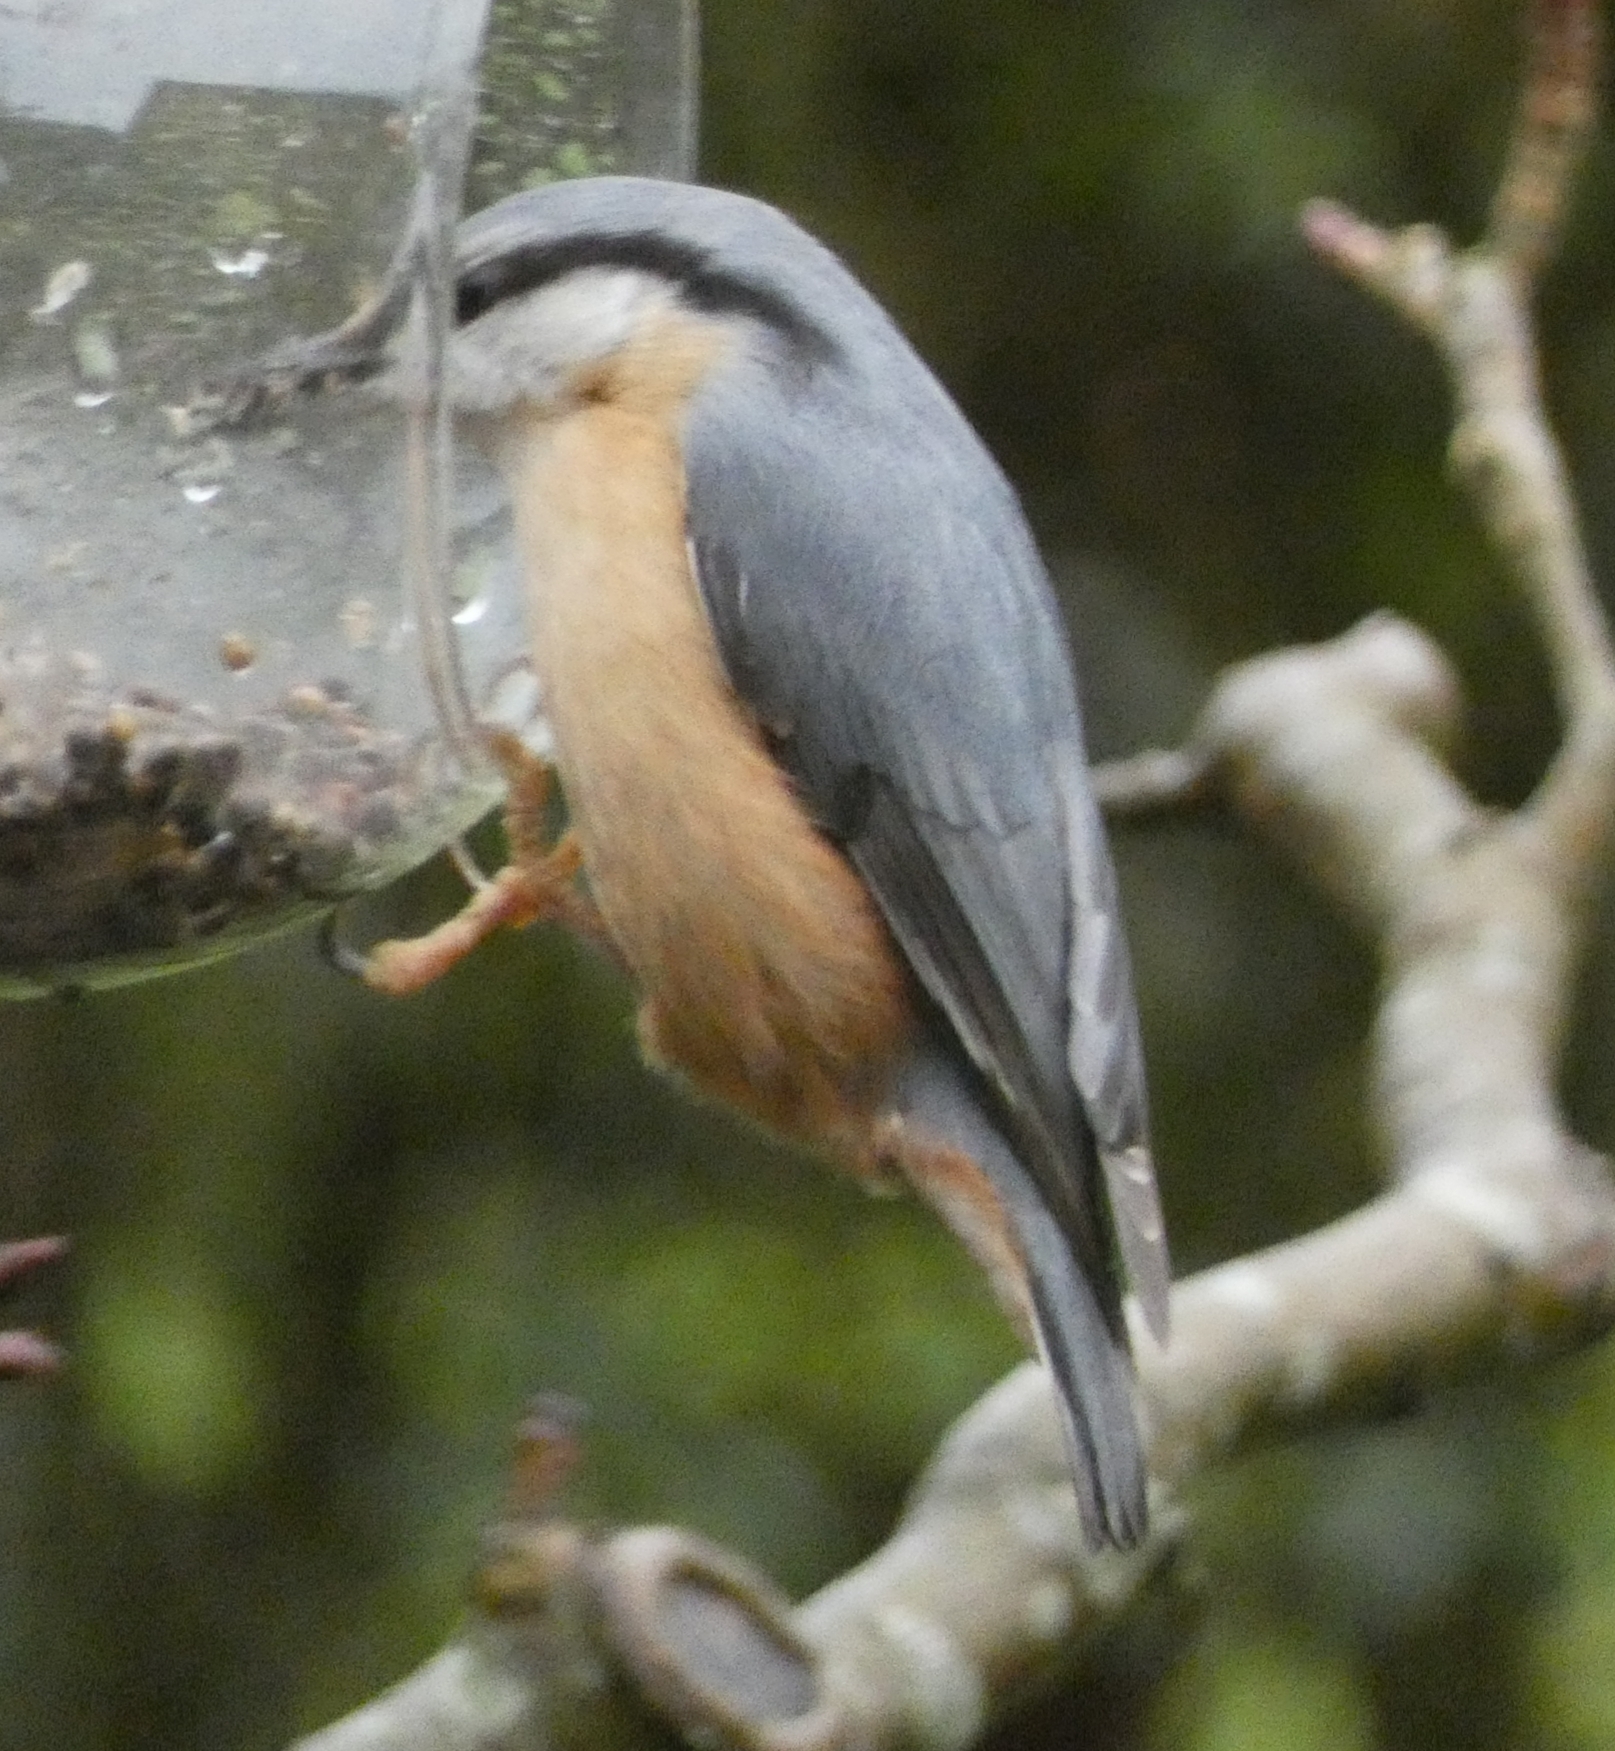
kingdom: Animalia
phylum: Chordata
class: Aves
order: Passeriformes
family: Sittidae
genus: Sitta
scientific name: Sitta europaea
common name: Eurasian nuthatch
